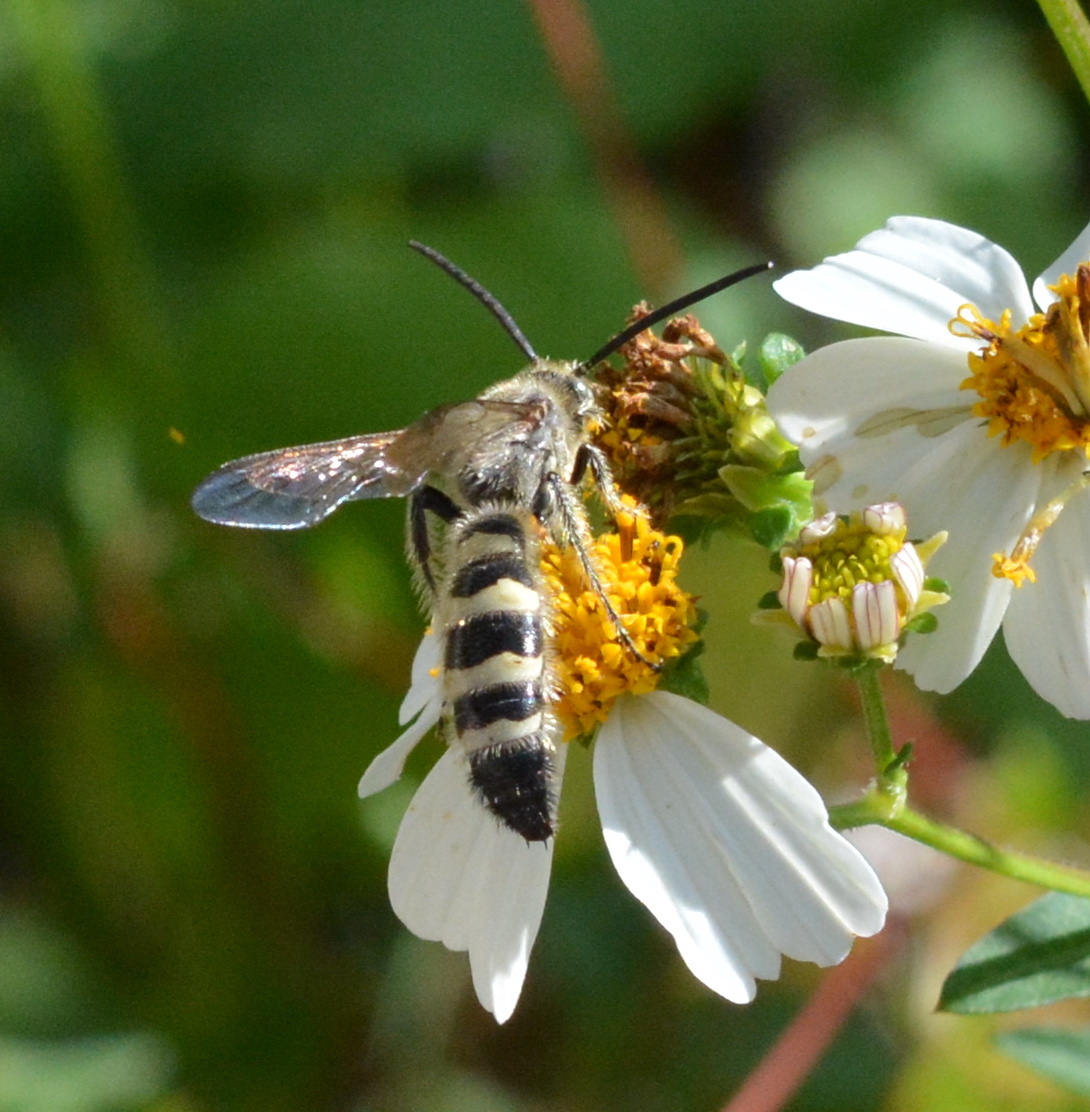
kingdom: Animalia
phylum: Arthropoda
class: Insecta
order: Hymenoptera
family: Scoliidae
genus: Dielis
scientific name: Dielis
